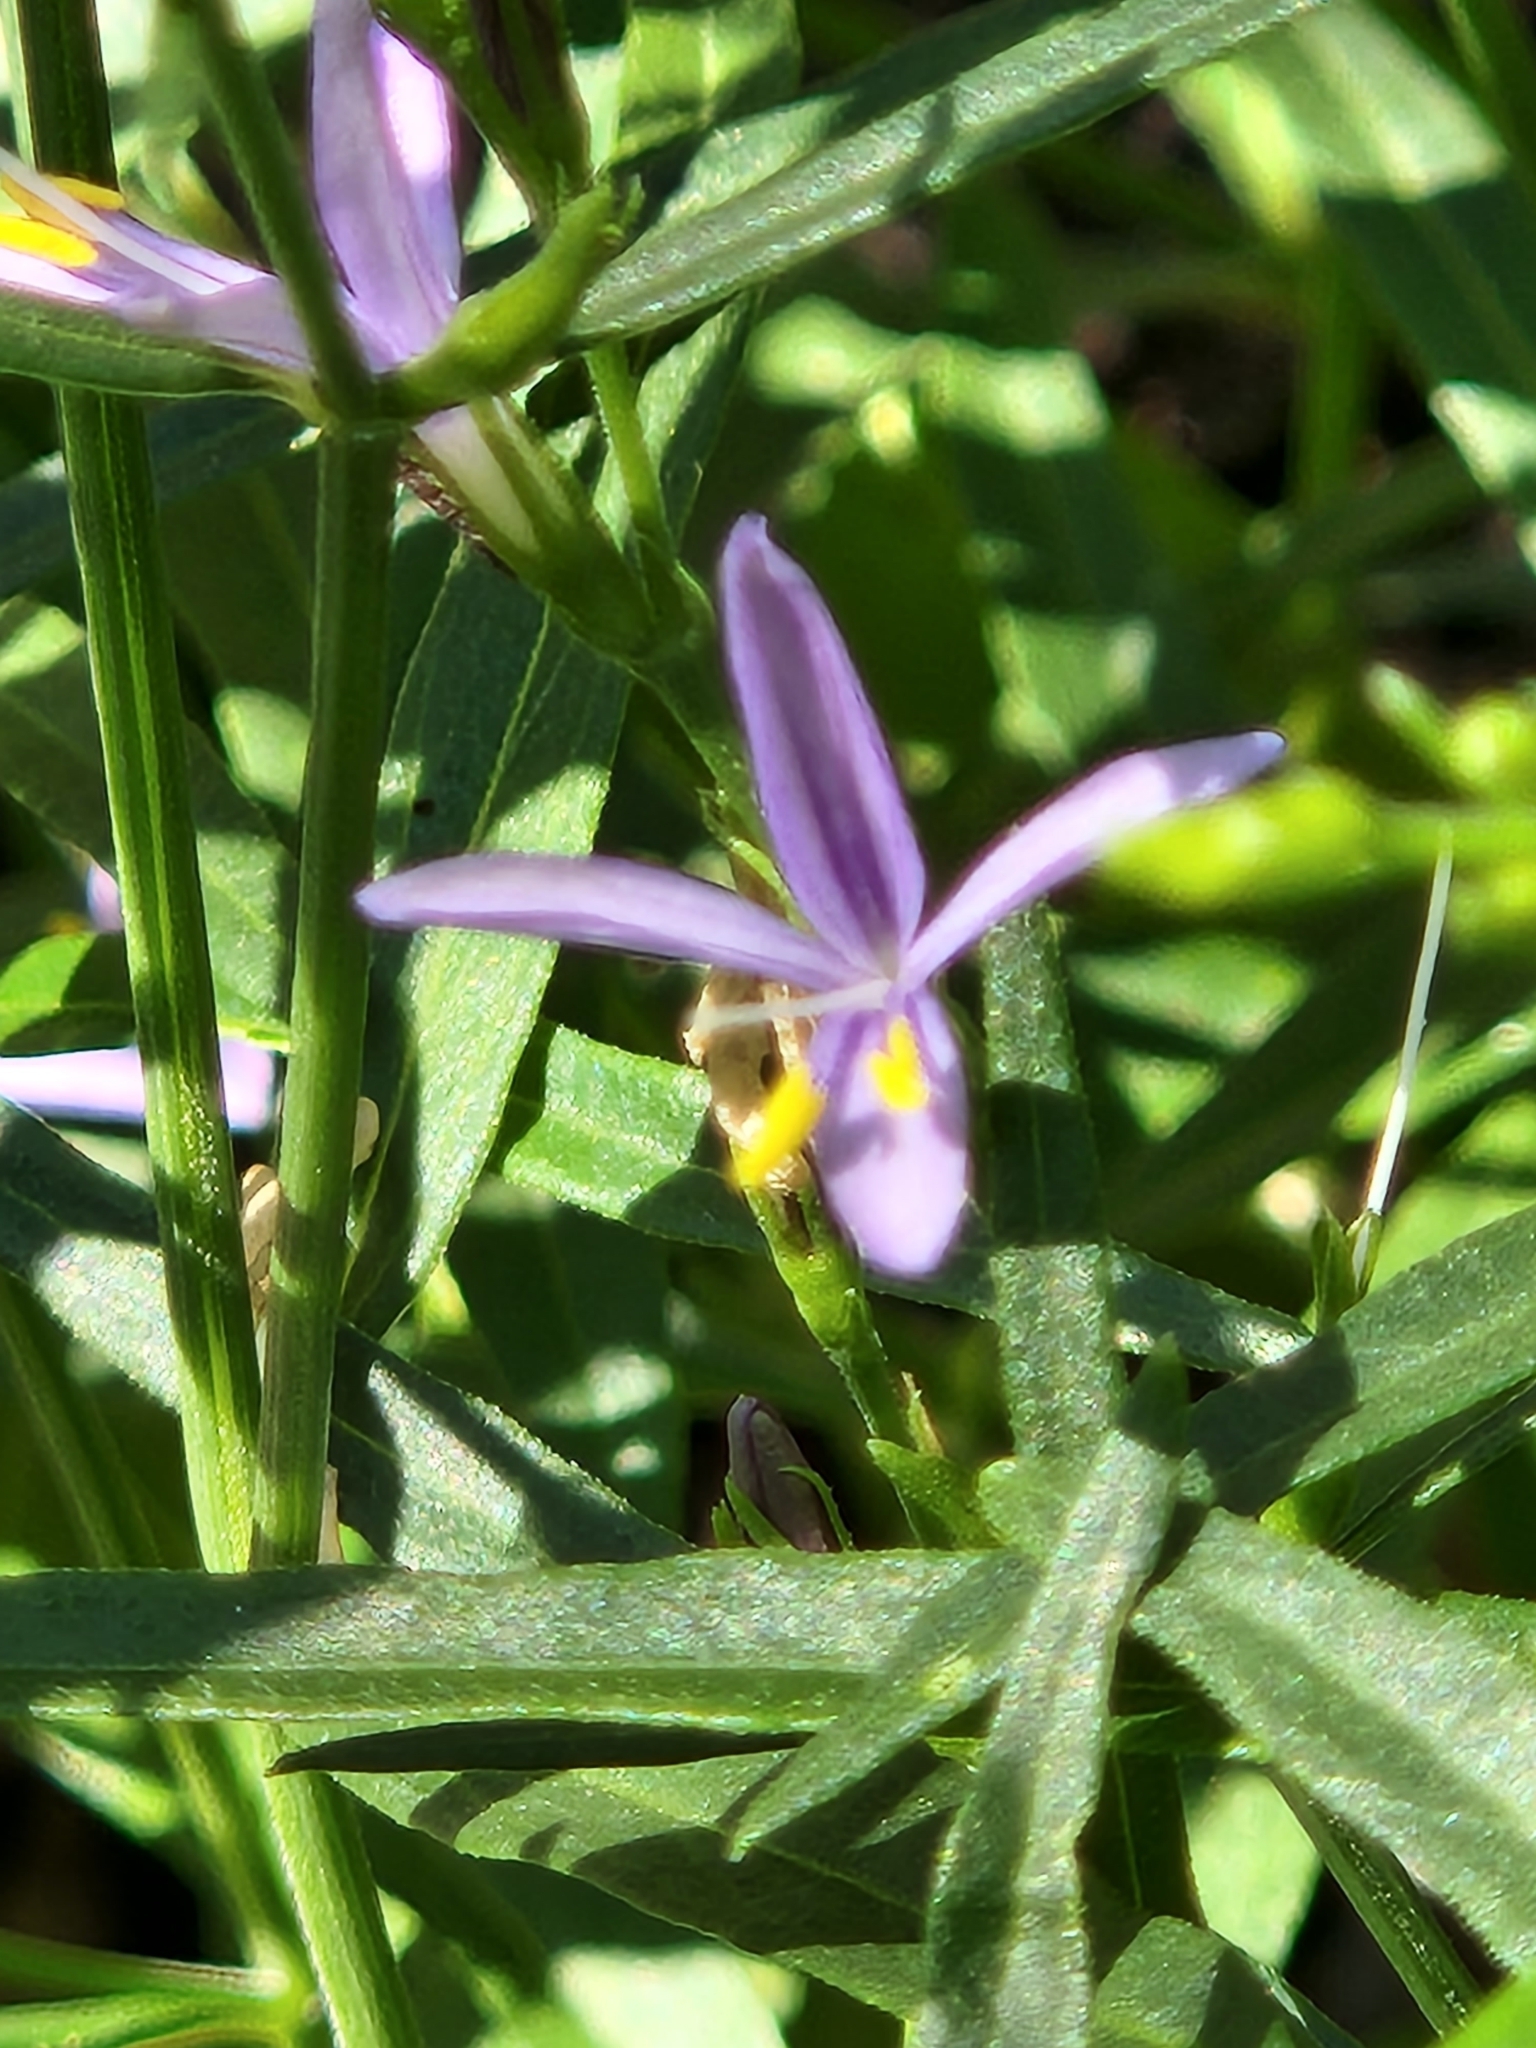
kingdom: Plantae
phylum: Tracheophyta
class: Magnoliopsida
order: Lamiales
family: Acanthaceae
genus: Carlowrightia
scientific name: Carlowrightia linearifolia
